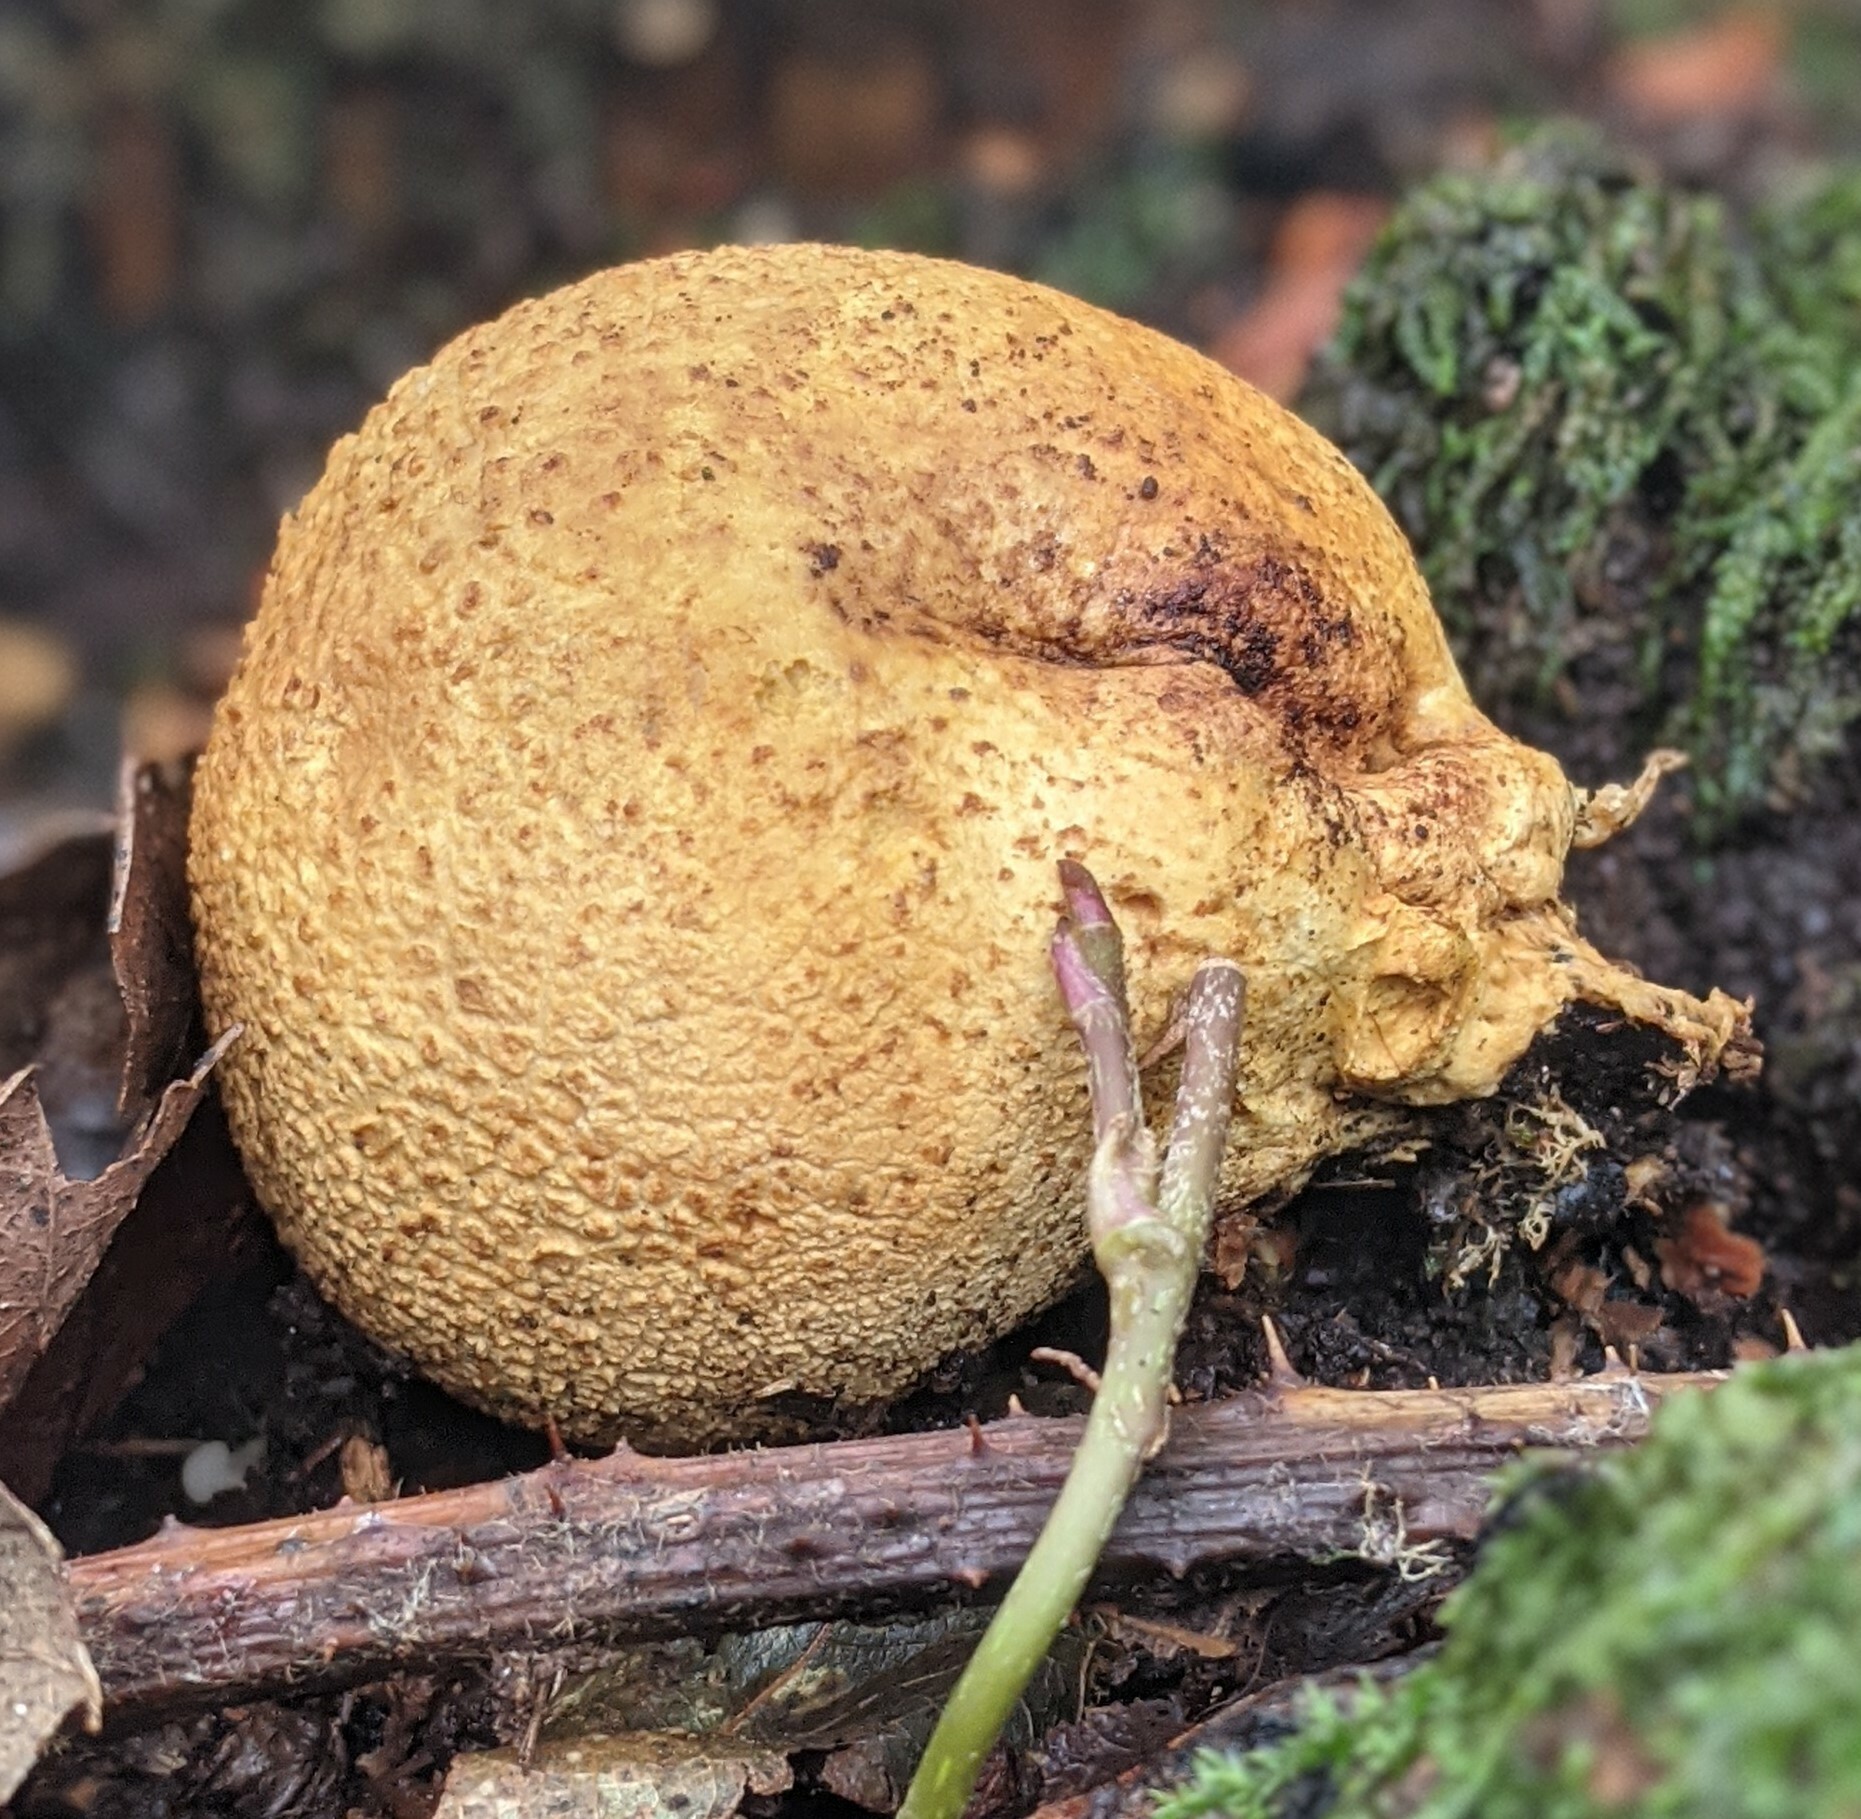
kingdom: Fungi
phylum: Basidiomycota
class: Agaricomycetes
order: Boletales
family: Sclerodermataceae
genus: Scleroderma
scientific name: Scleroderma citrinum
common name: Common earthball
